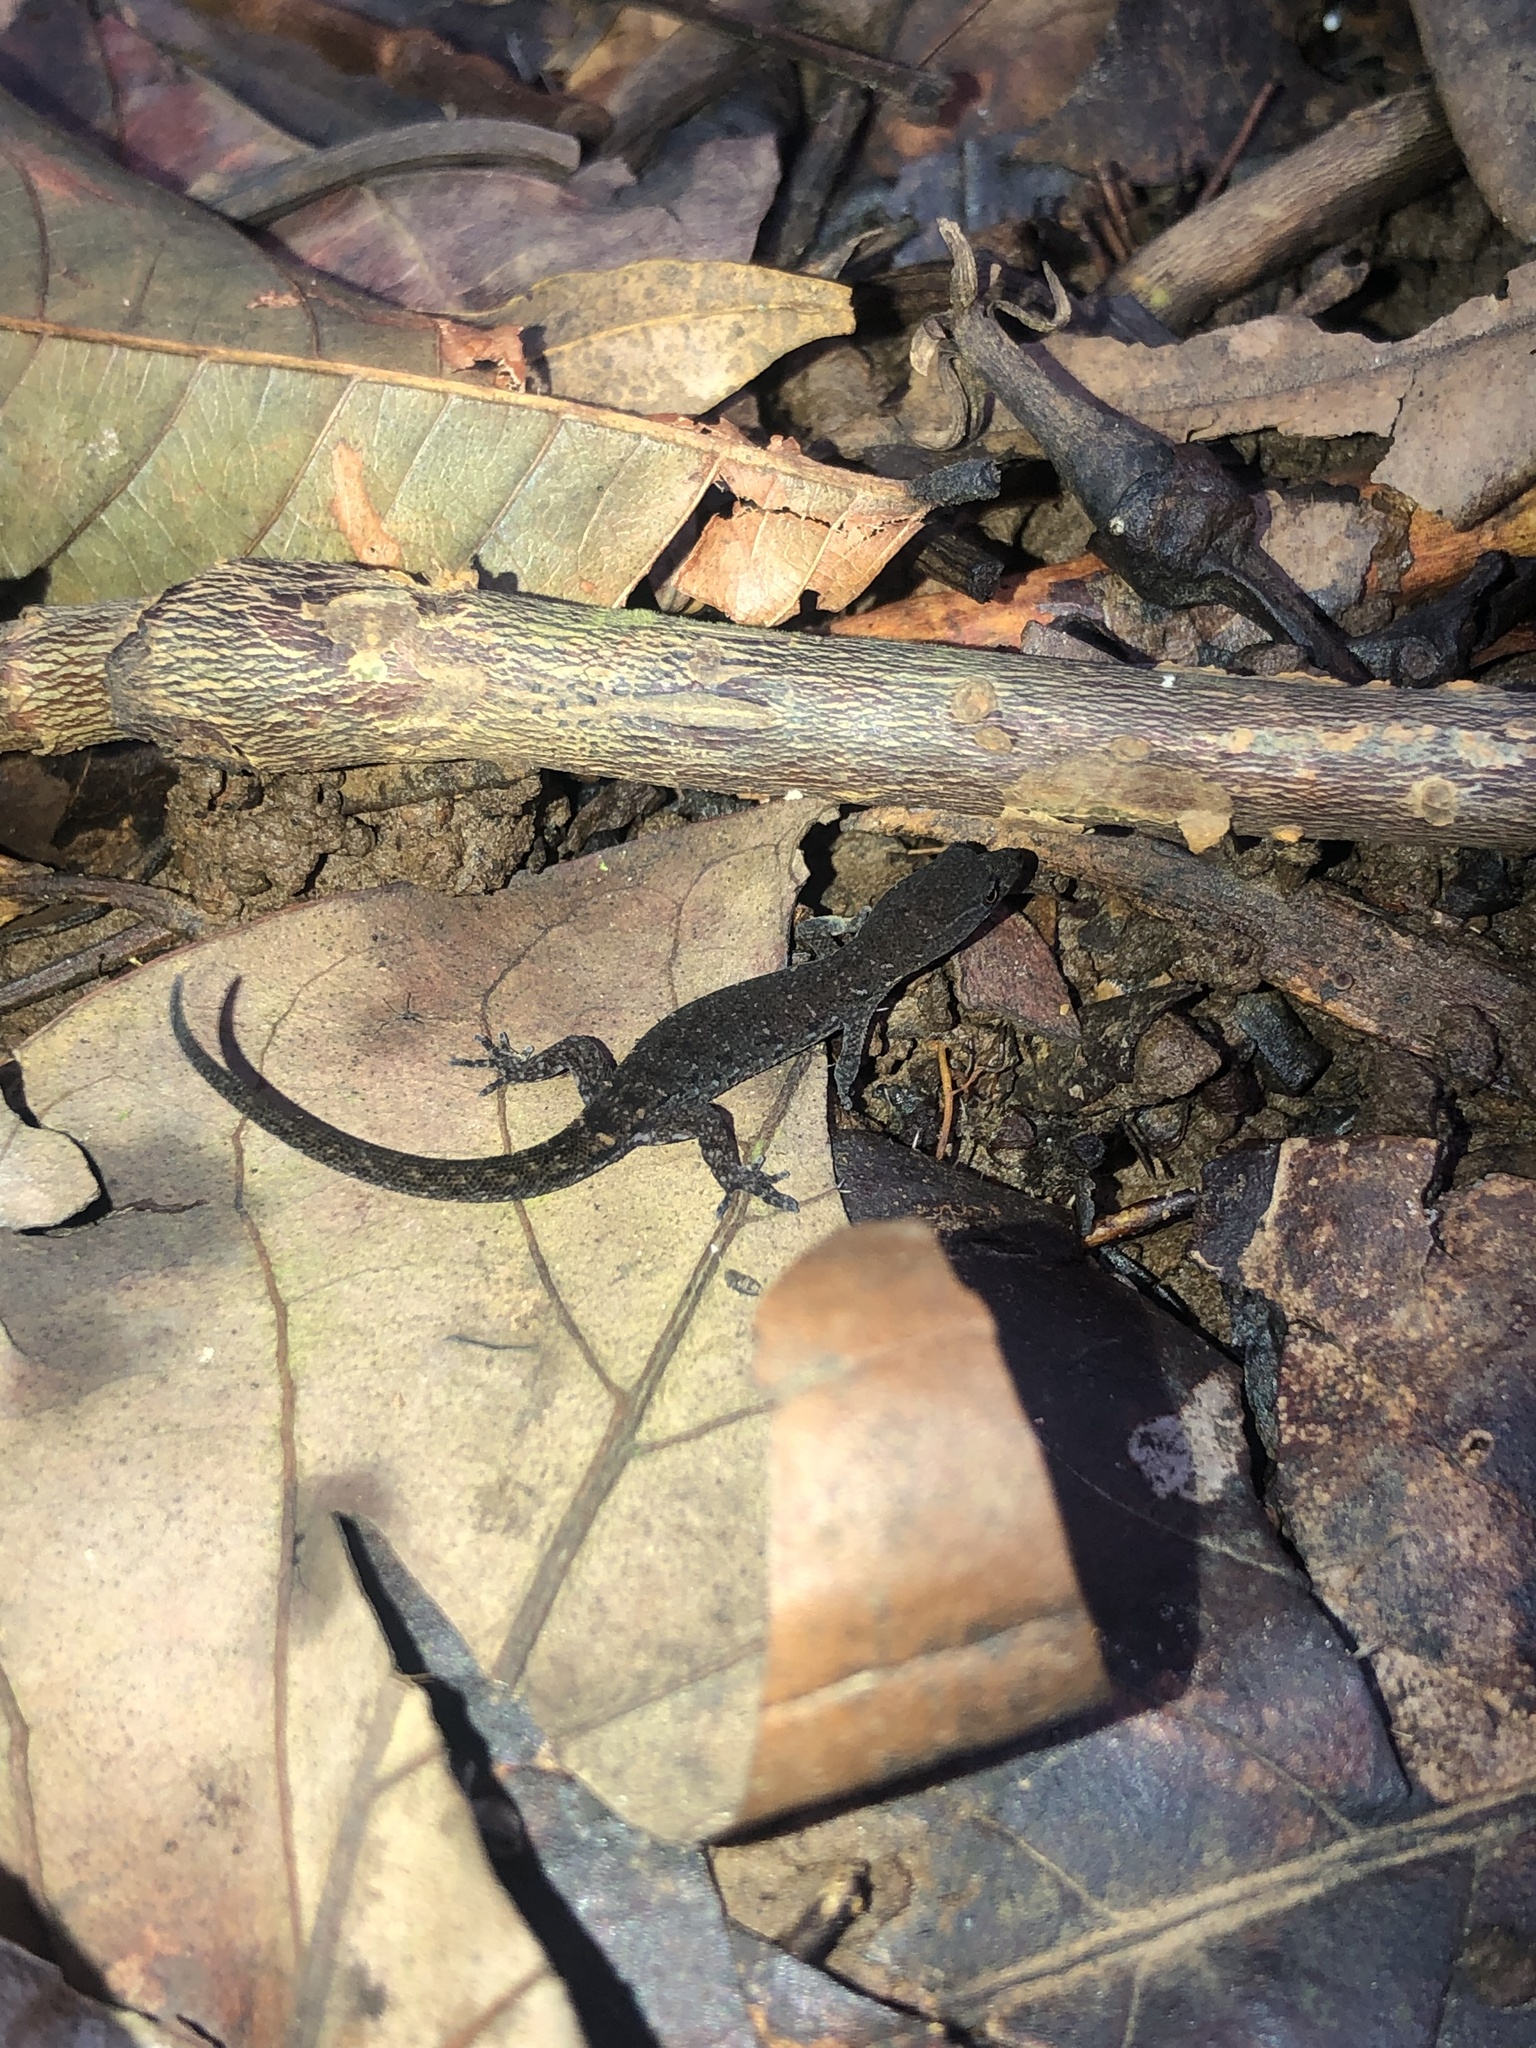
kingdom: Animalia
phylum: Chordata
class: Squamata
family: Sphaerodactylidae
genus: Lepidoblepharis
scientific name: Lepidoblepharis xanthostigma
